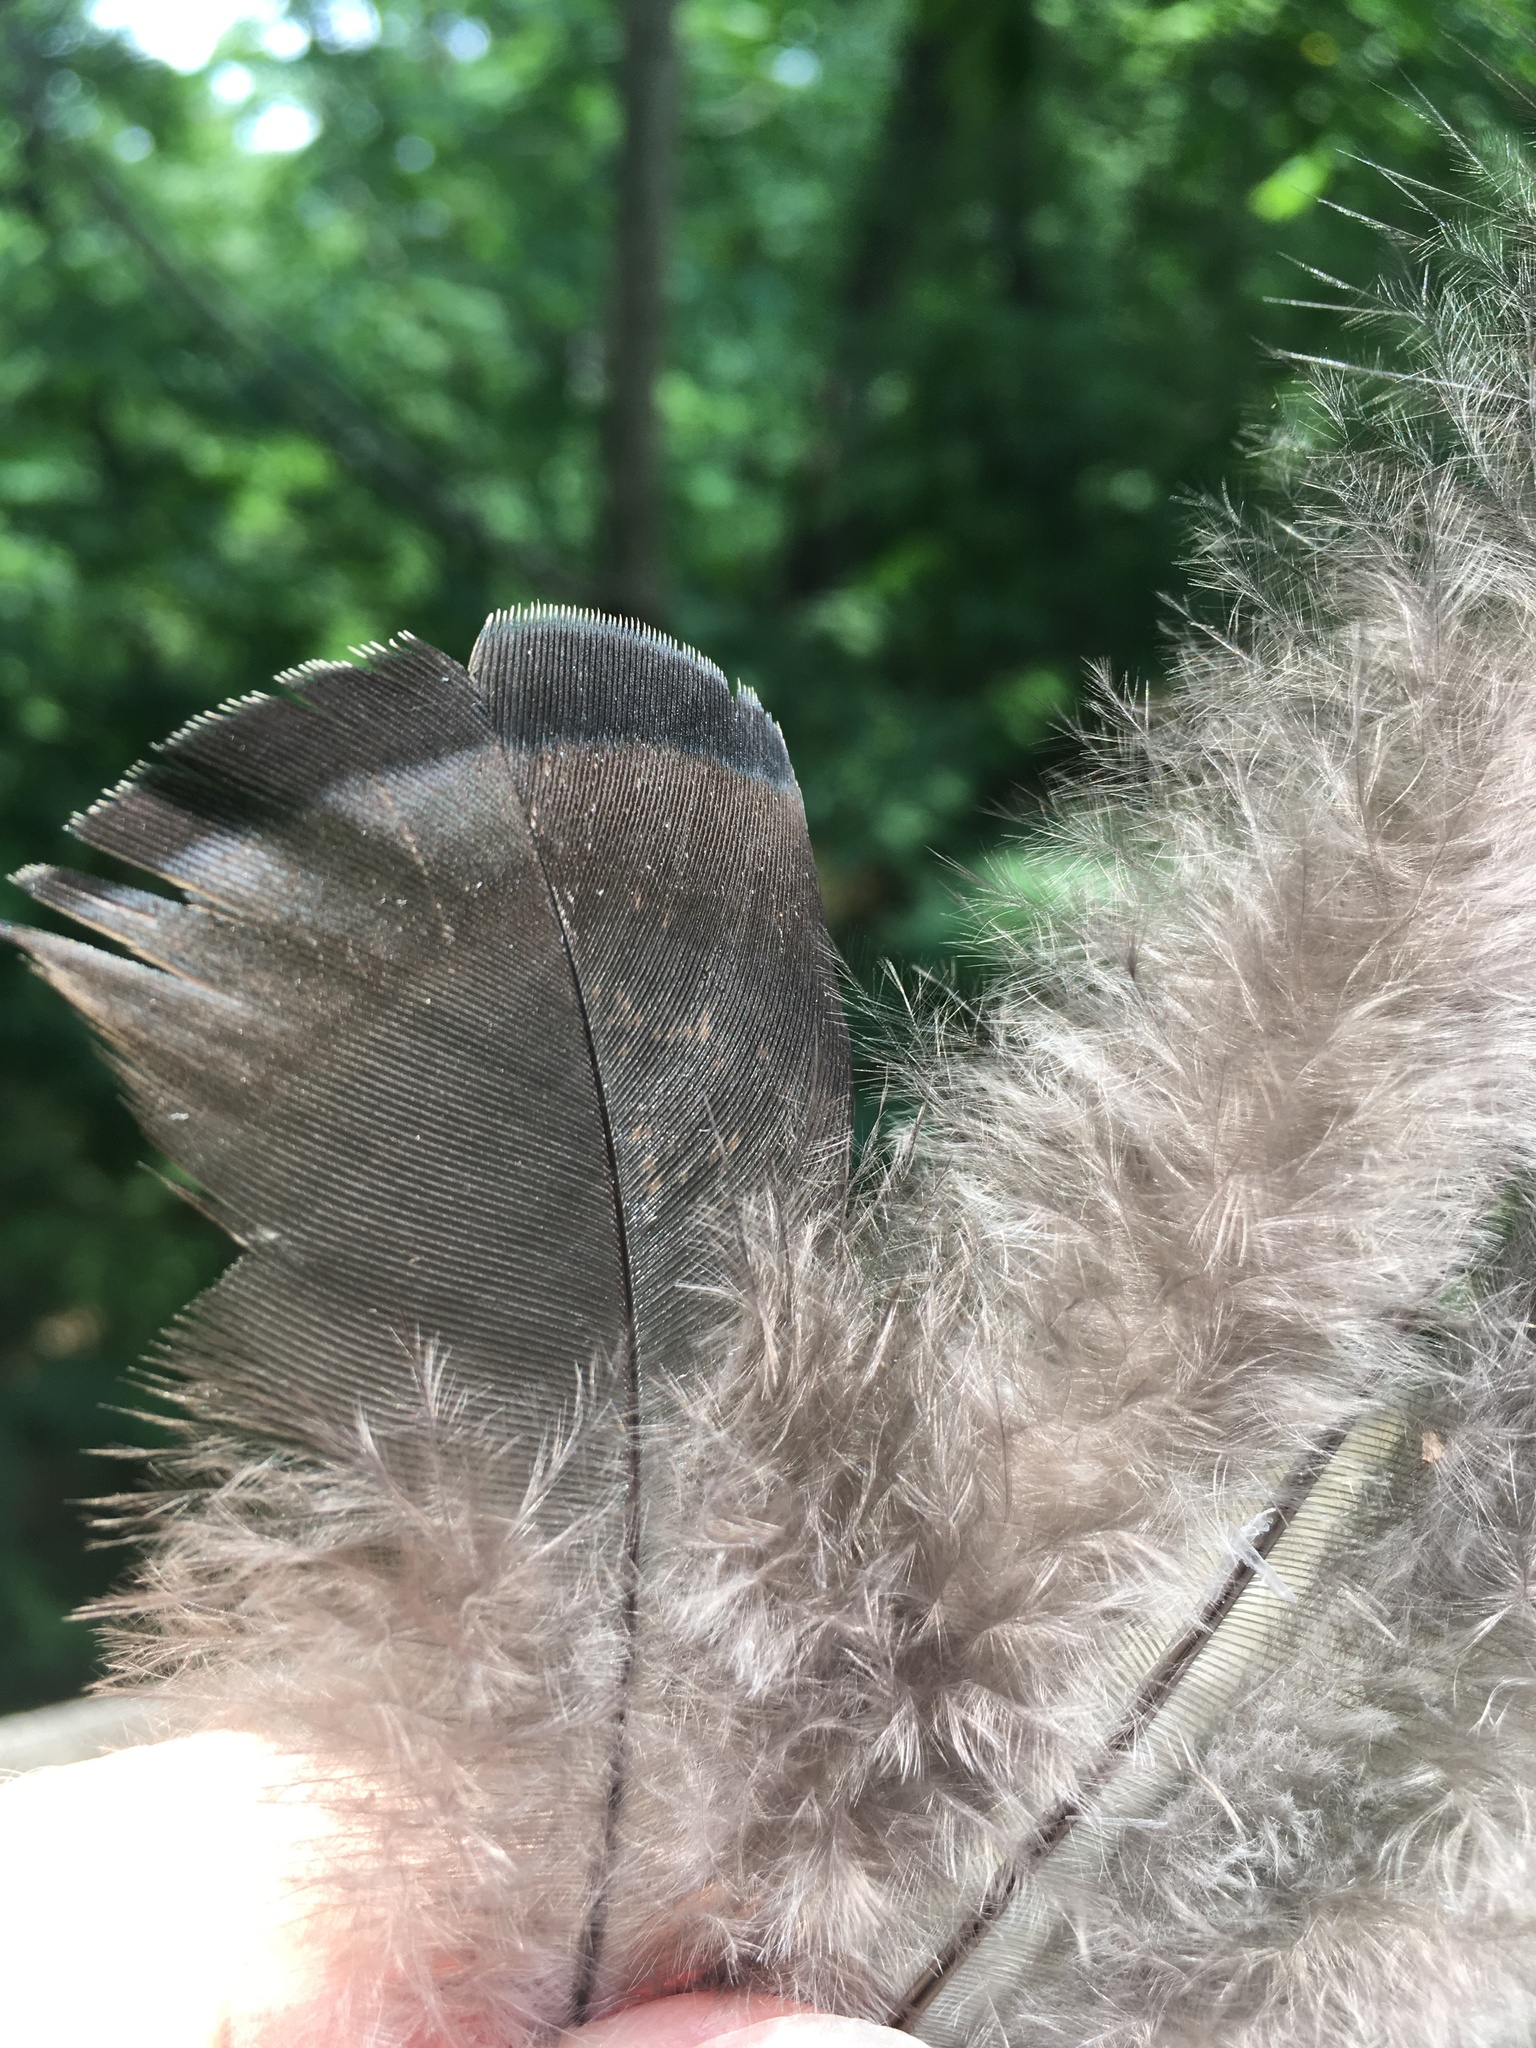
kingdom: Animalia
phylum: Chordata
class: Aves
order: Galliformes
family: Phasianidae
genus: Meleagris
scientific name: Meleagris gallopavo
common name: Wild turkey
